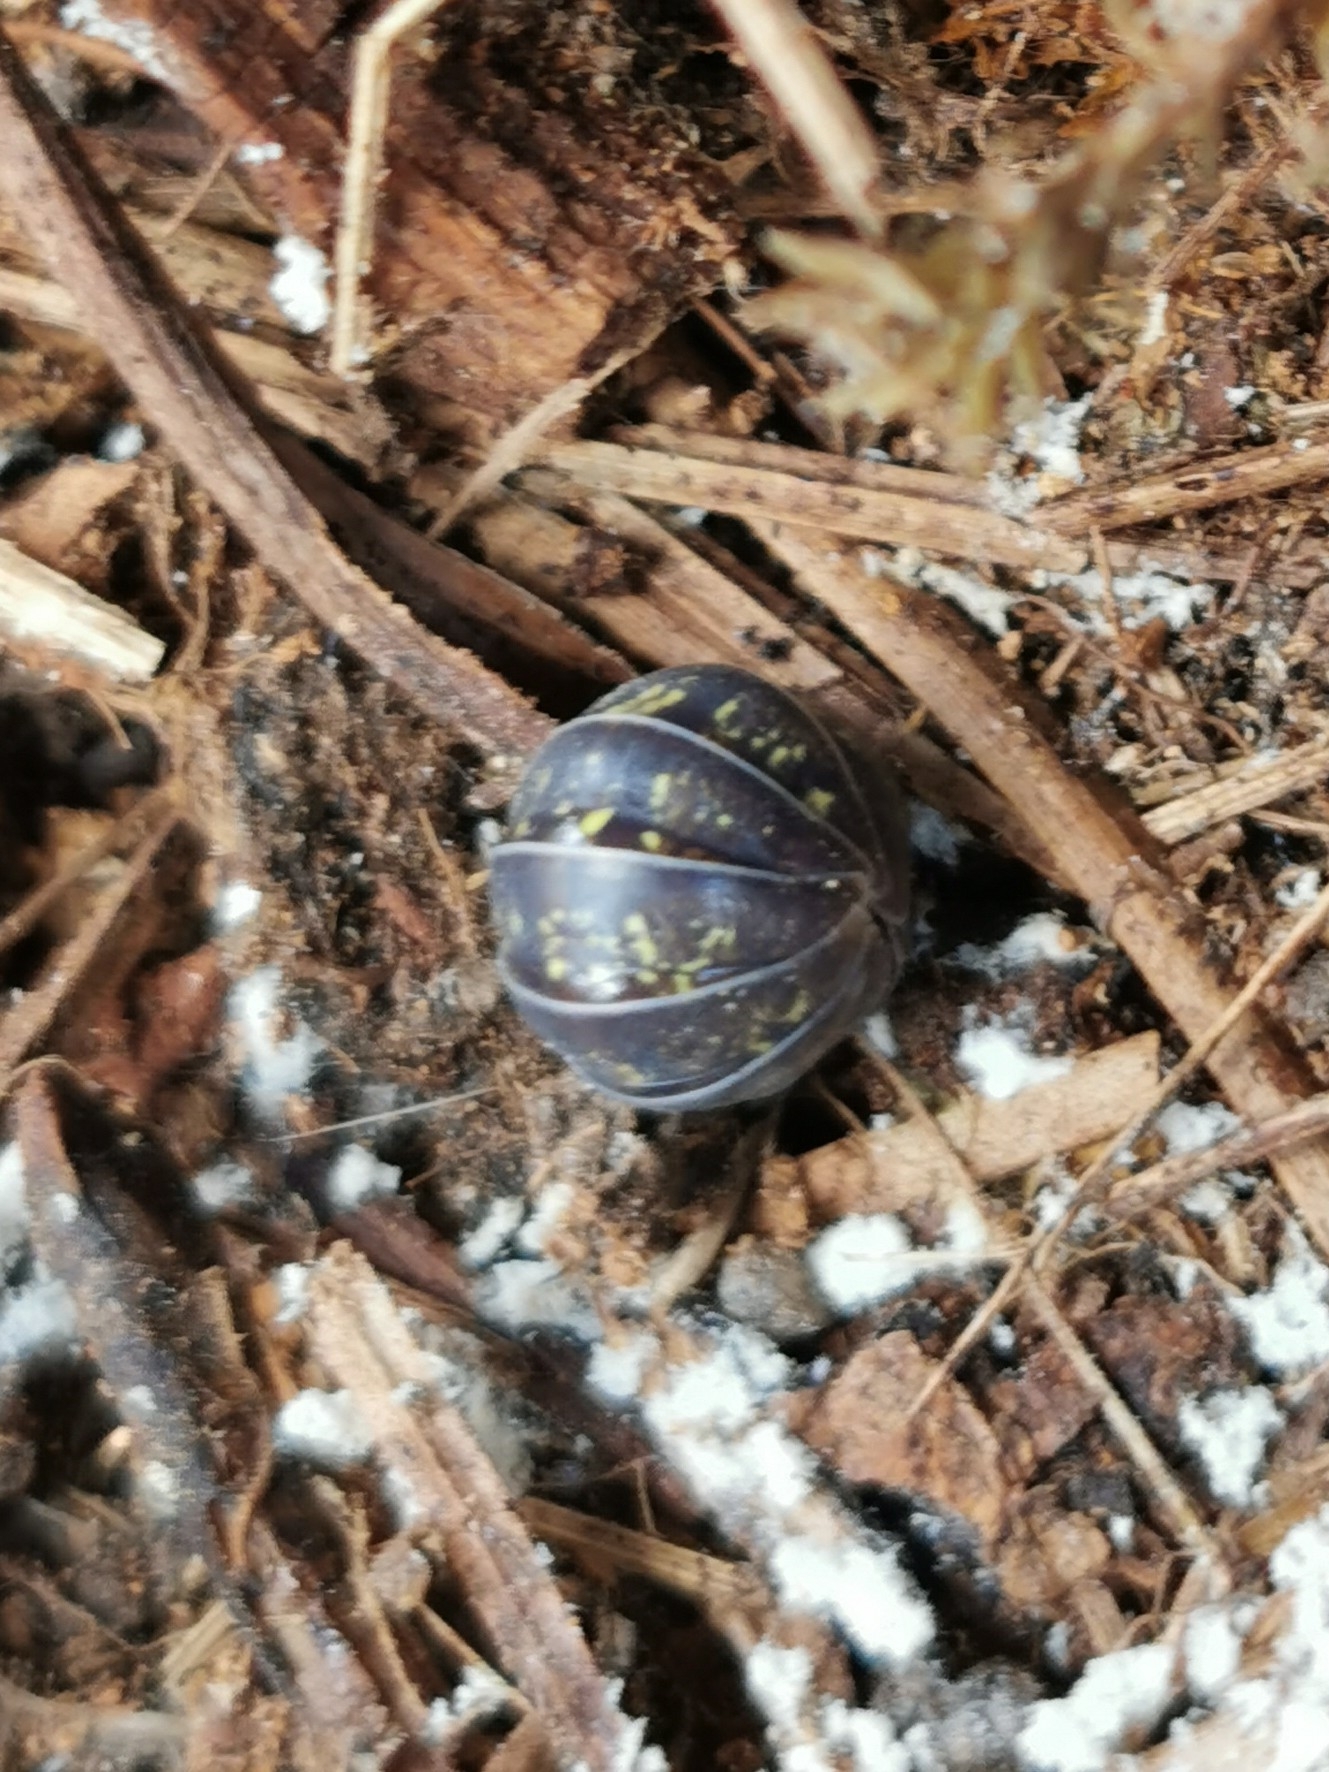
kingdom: Animalia
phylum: Arthropoda
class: Malacostraca
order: Isopoda
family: Armadillidiidae
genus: Armadillidium
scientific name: Armadillidium vulgare
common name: Common pill woodlouse
